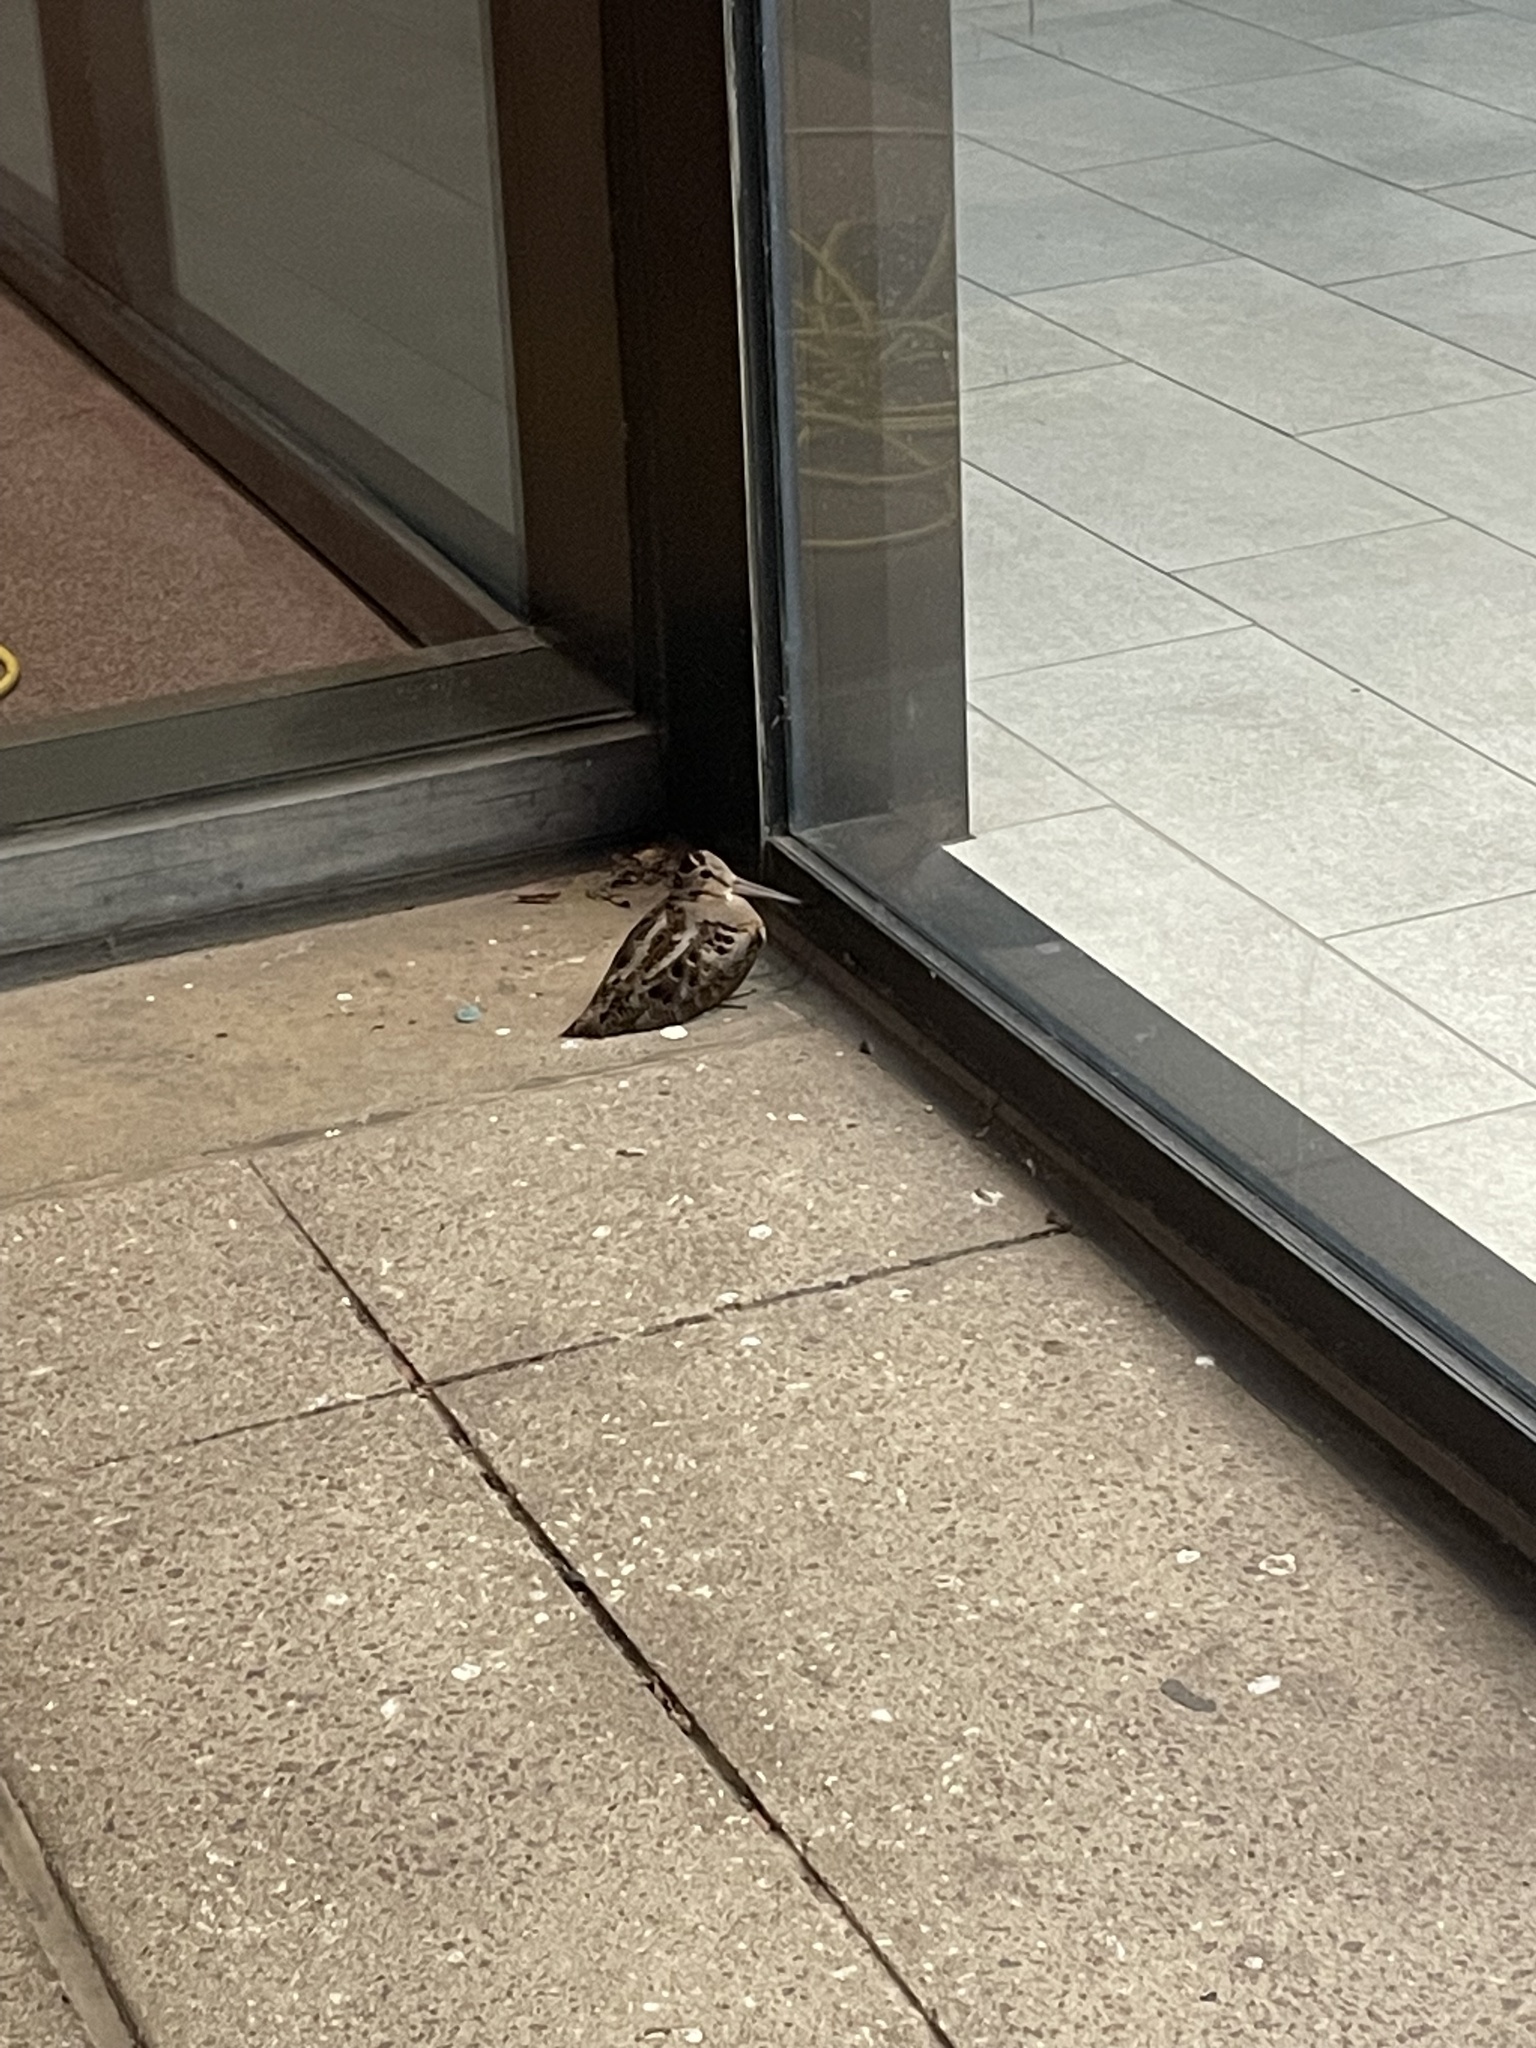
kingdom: Animalia
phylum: Chordata
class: Aves
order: Charadriiformes
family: Scolopacidae
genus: Scolopax
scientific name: Scolopax minor
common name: American woodcock
